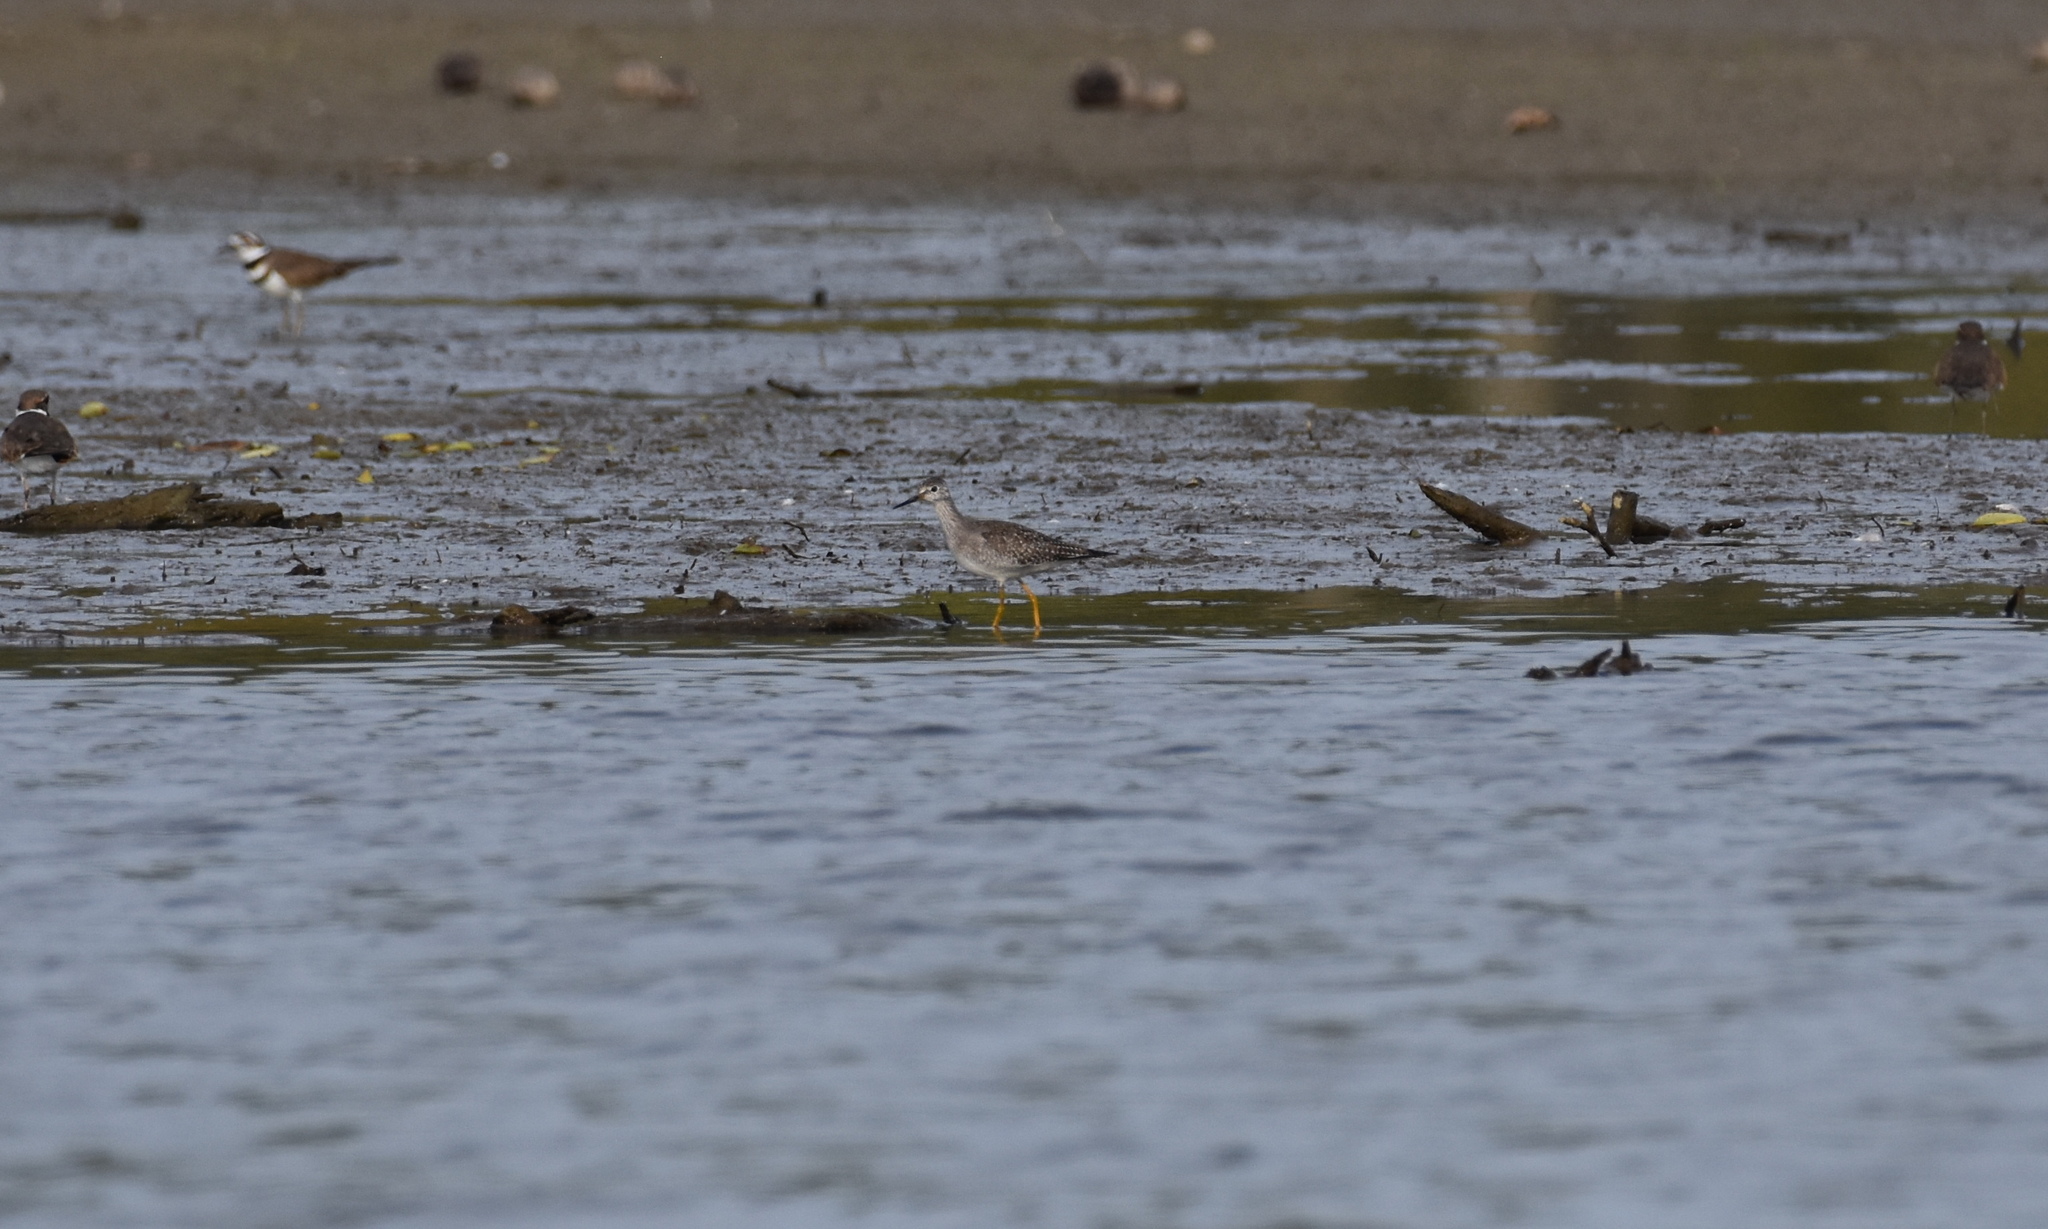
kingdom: Animalia
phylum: Chordata
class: Aves
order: Charadriiformes
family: Scolopacidae
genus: Tringa
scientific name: Tringa flavipes
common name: Lesser yellowlegs
